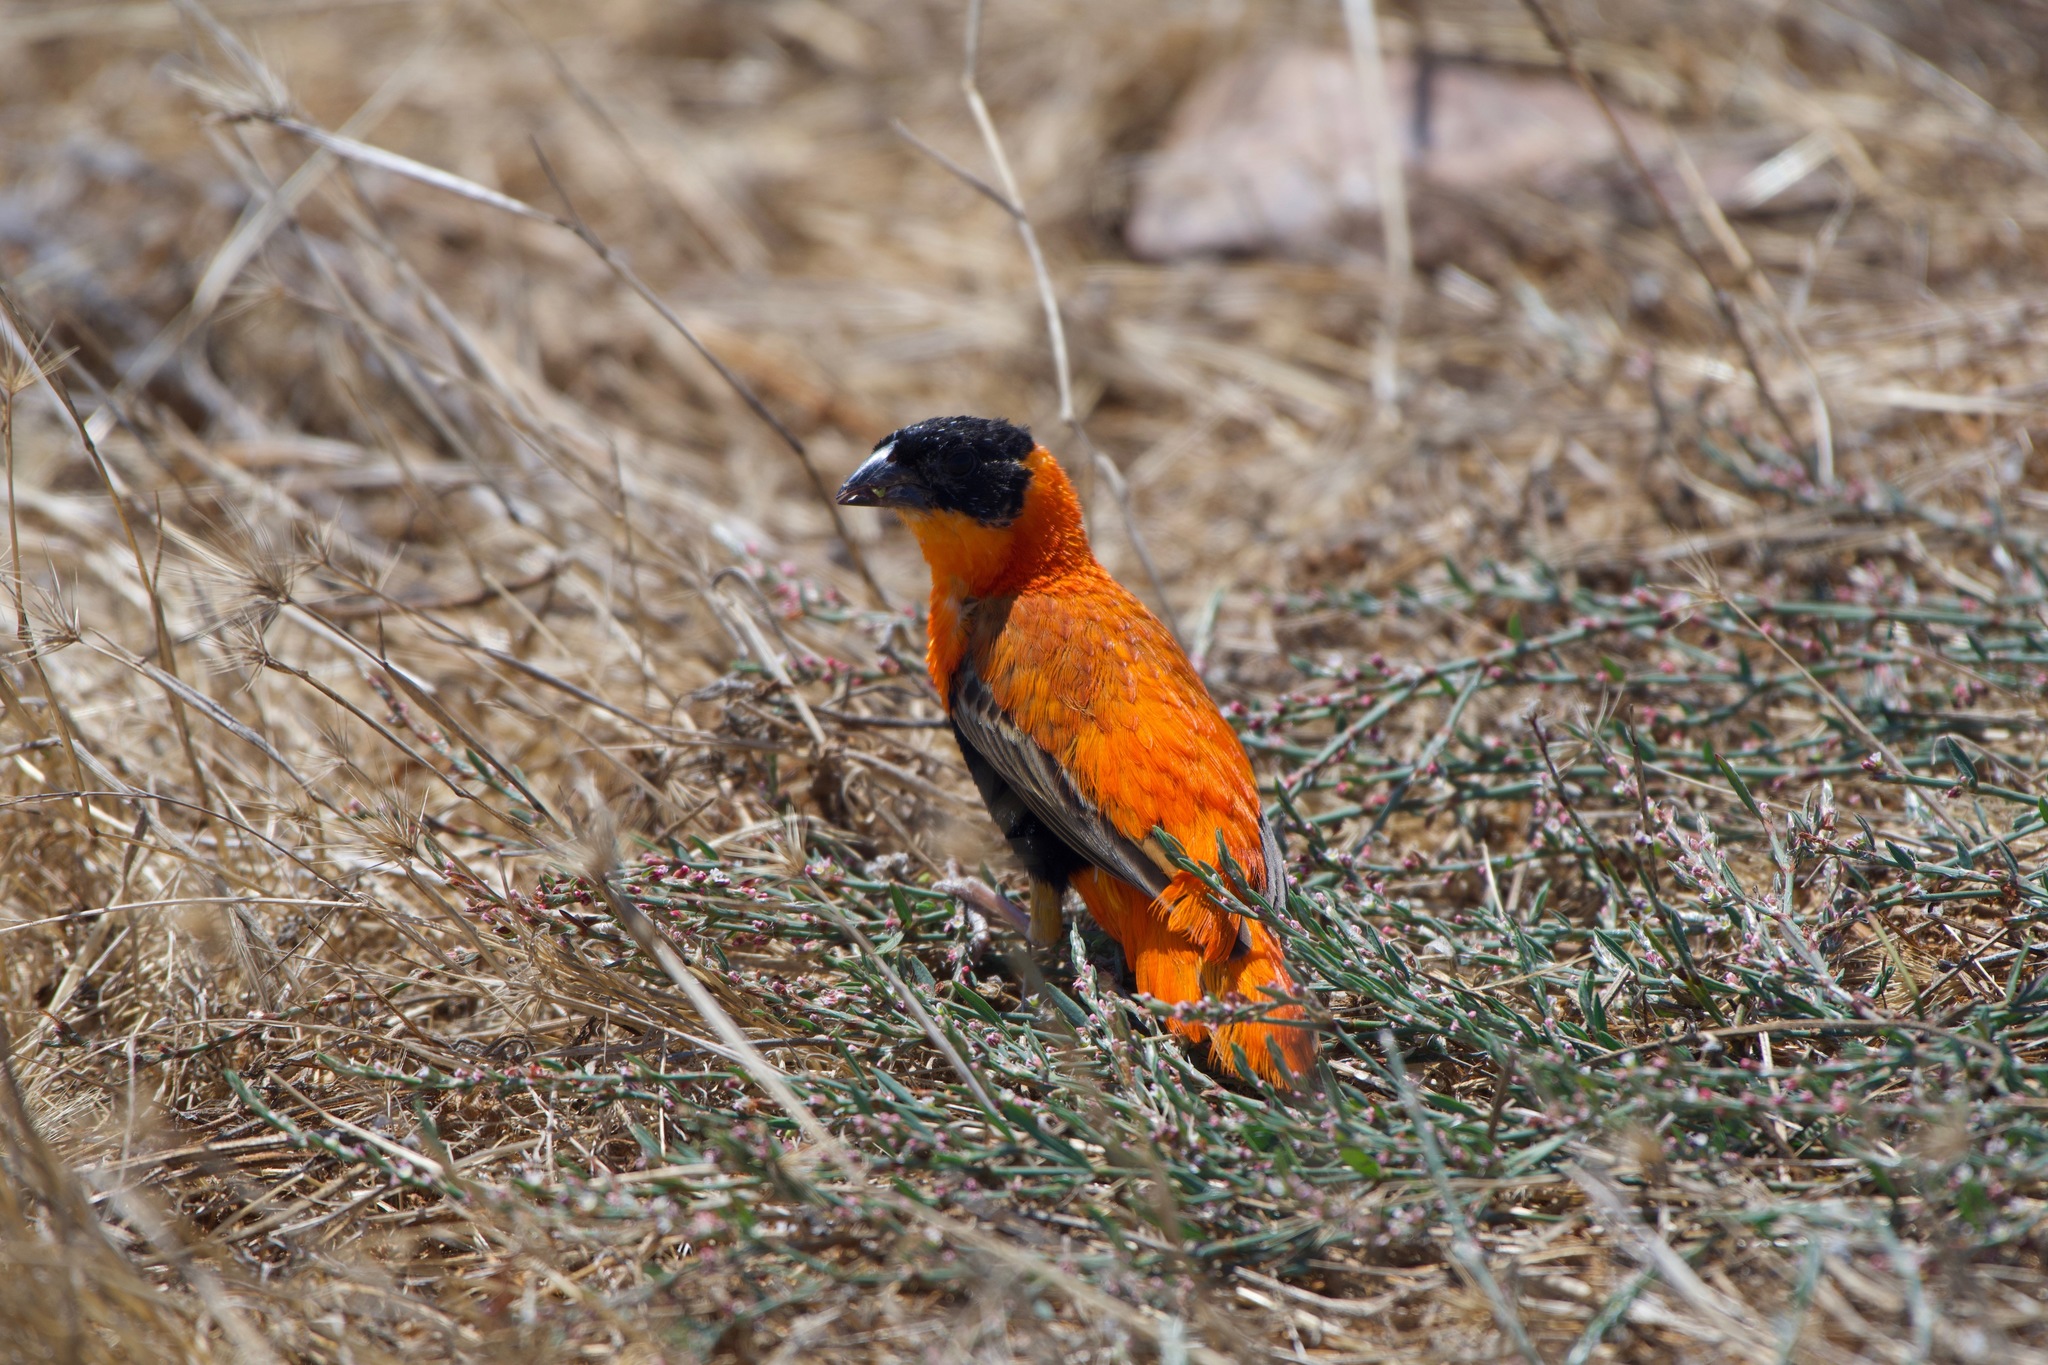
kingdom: Animalia
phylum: Chordata
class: Aves
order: Passeriformes
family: Ploceidae
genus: Euplectes
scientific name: Euplectes franciscanus
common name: Northern red bishop
